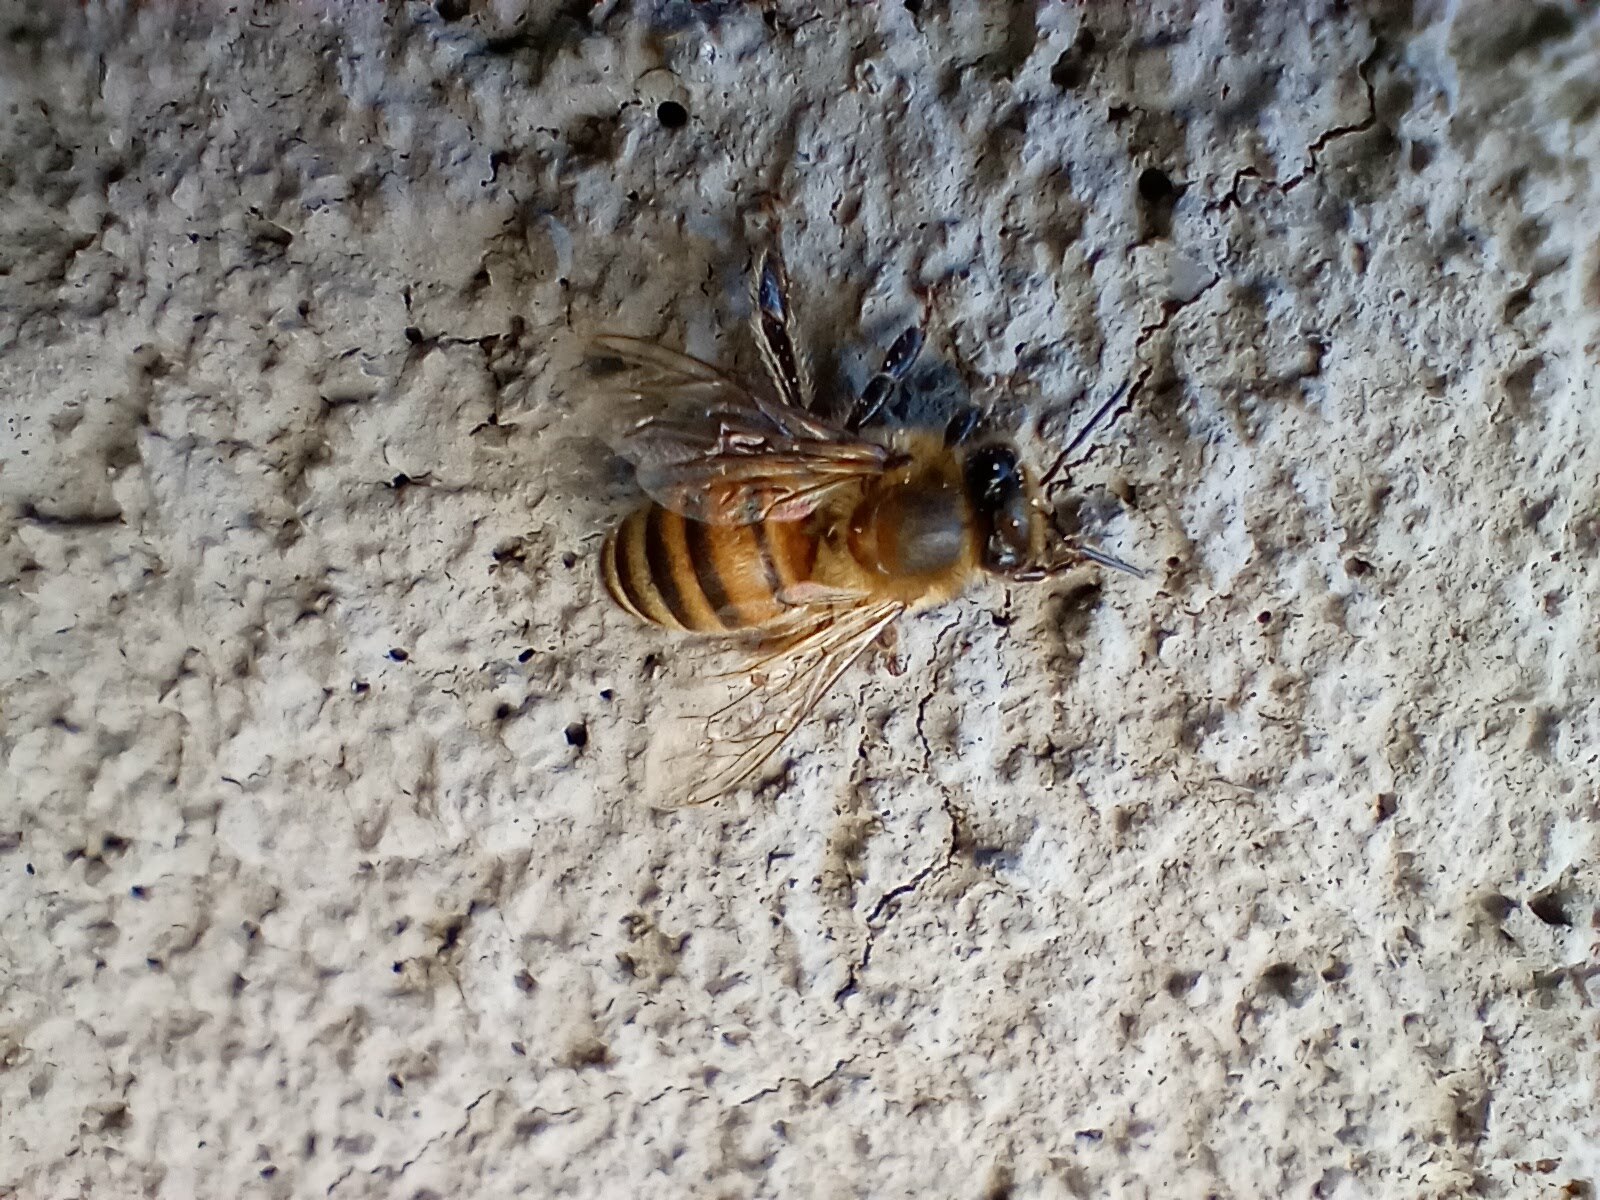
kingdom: Animalia
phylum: Arthropoda
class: Insecta
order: Hymenoptera
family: Apidae
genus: Apis
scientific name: Apis mellifera
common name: Honey bee
